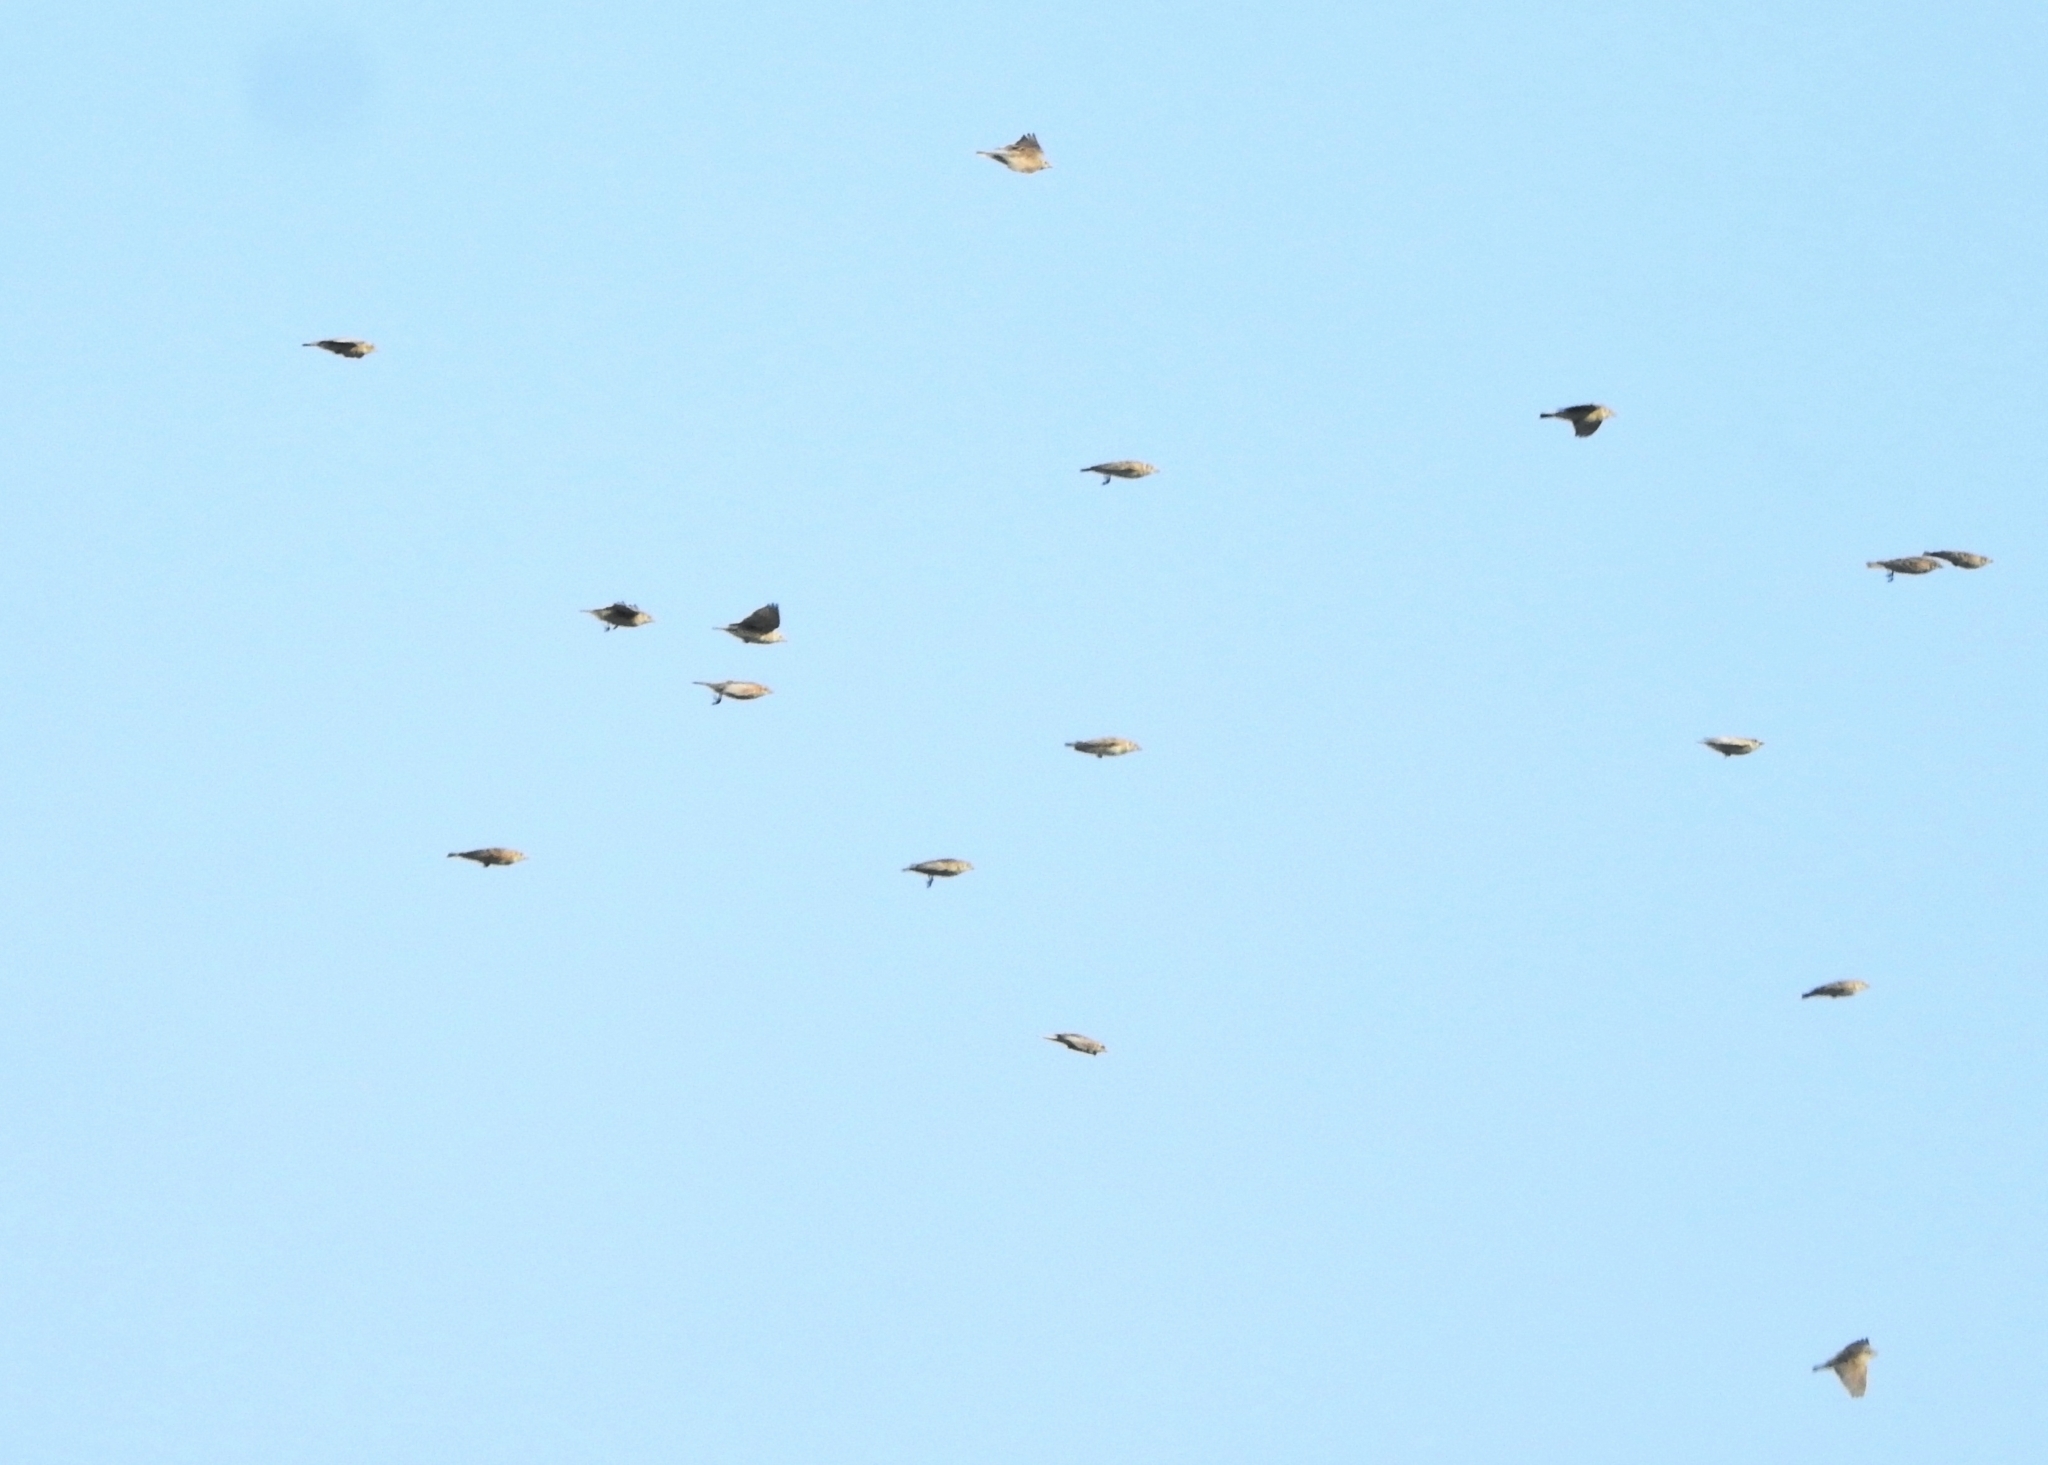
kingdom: Animalia
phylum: Chordata
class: Aves
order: Passeriformes
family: Alaudidae
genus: Calandrella
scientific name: Calandrella brachydactyla
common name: Greater short-toed lark
